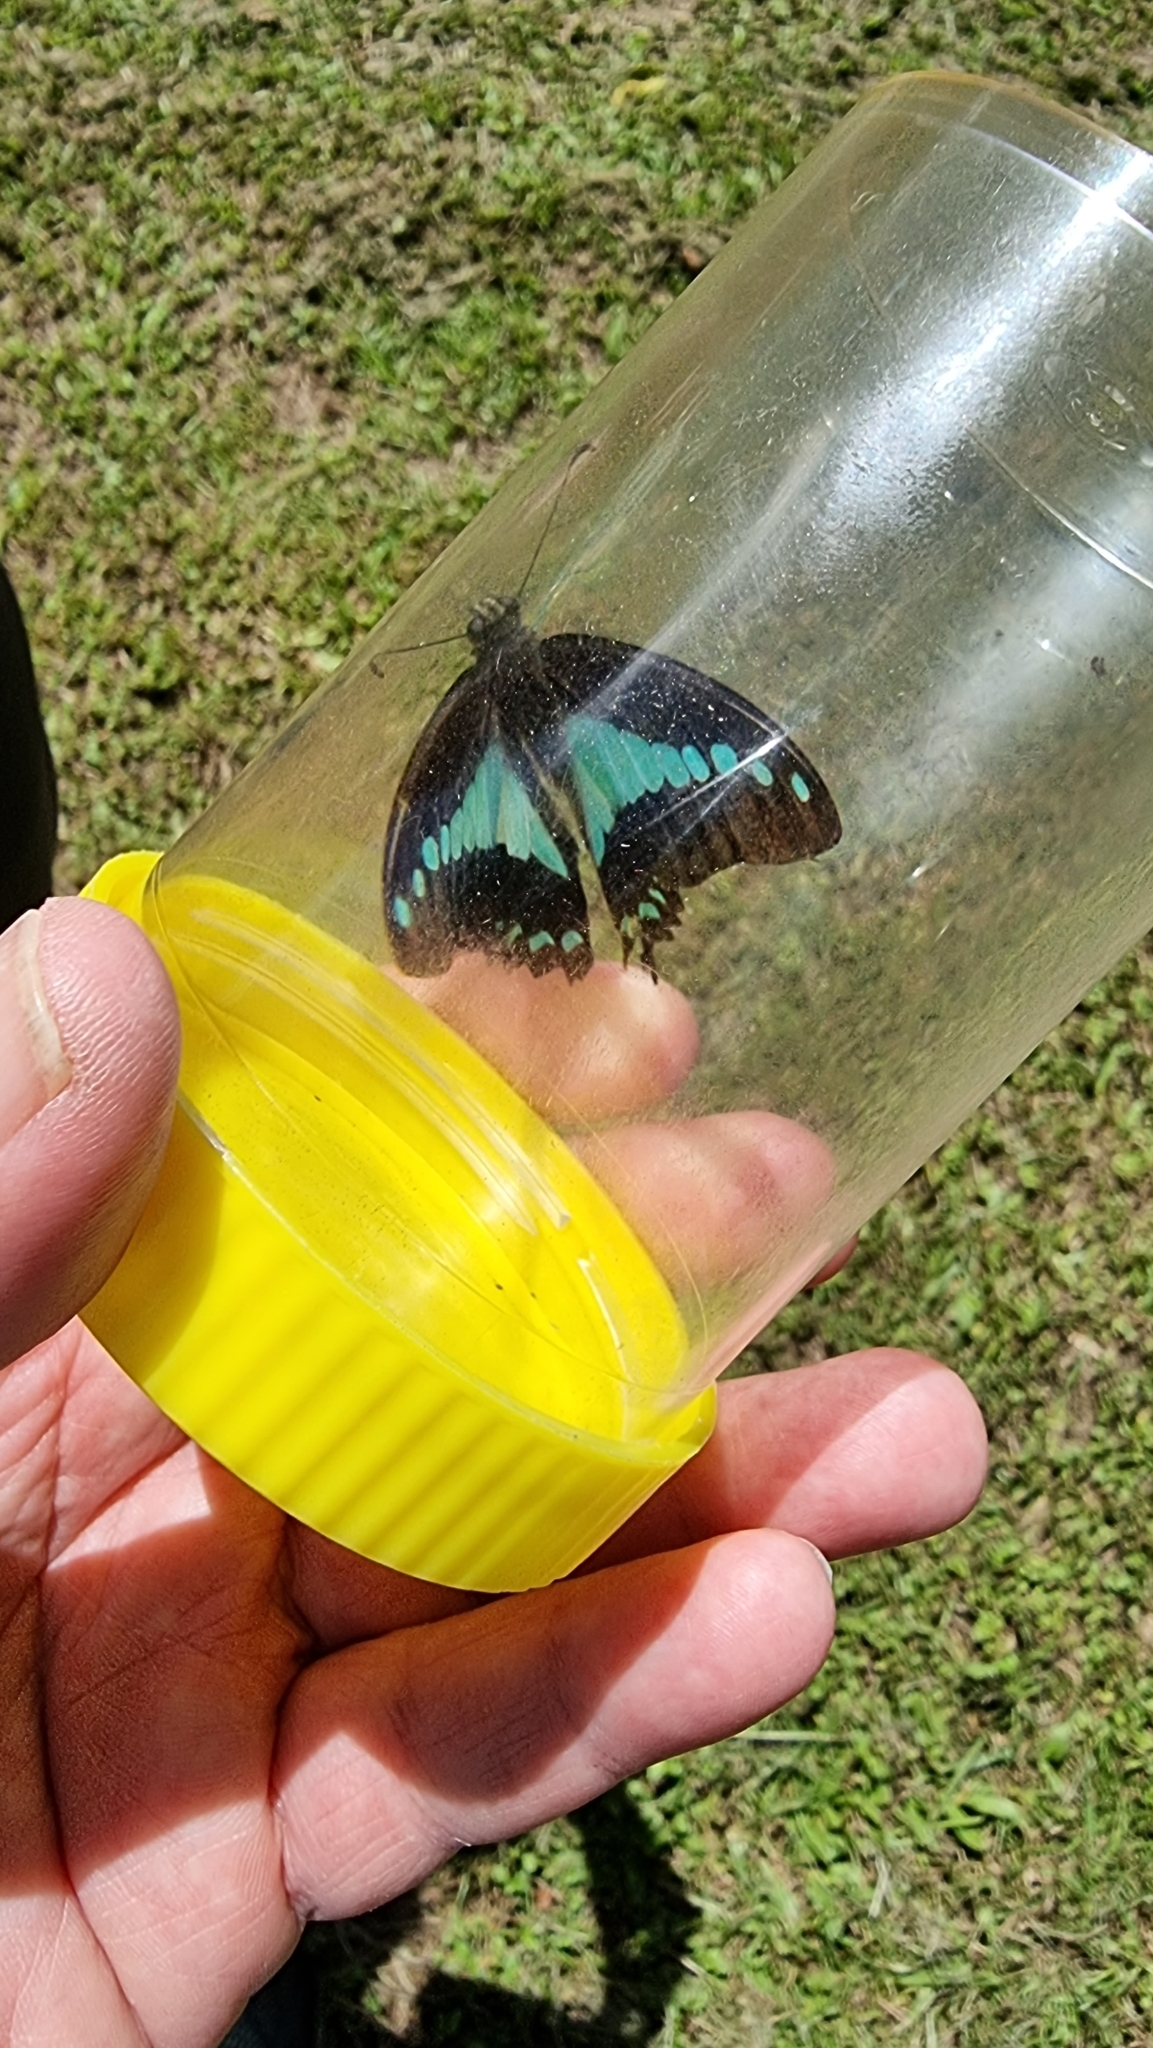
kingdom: Animalia
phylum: Arthropoda
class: Insecta
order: Lepidoptera
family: Papilionidae
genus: Graphium
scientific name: Graphium
